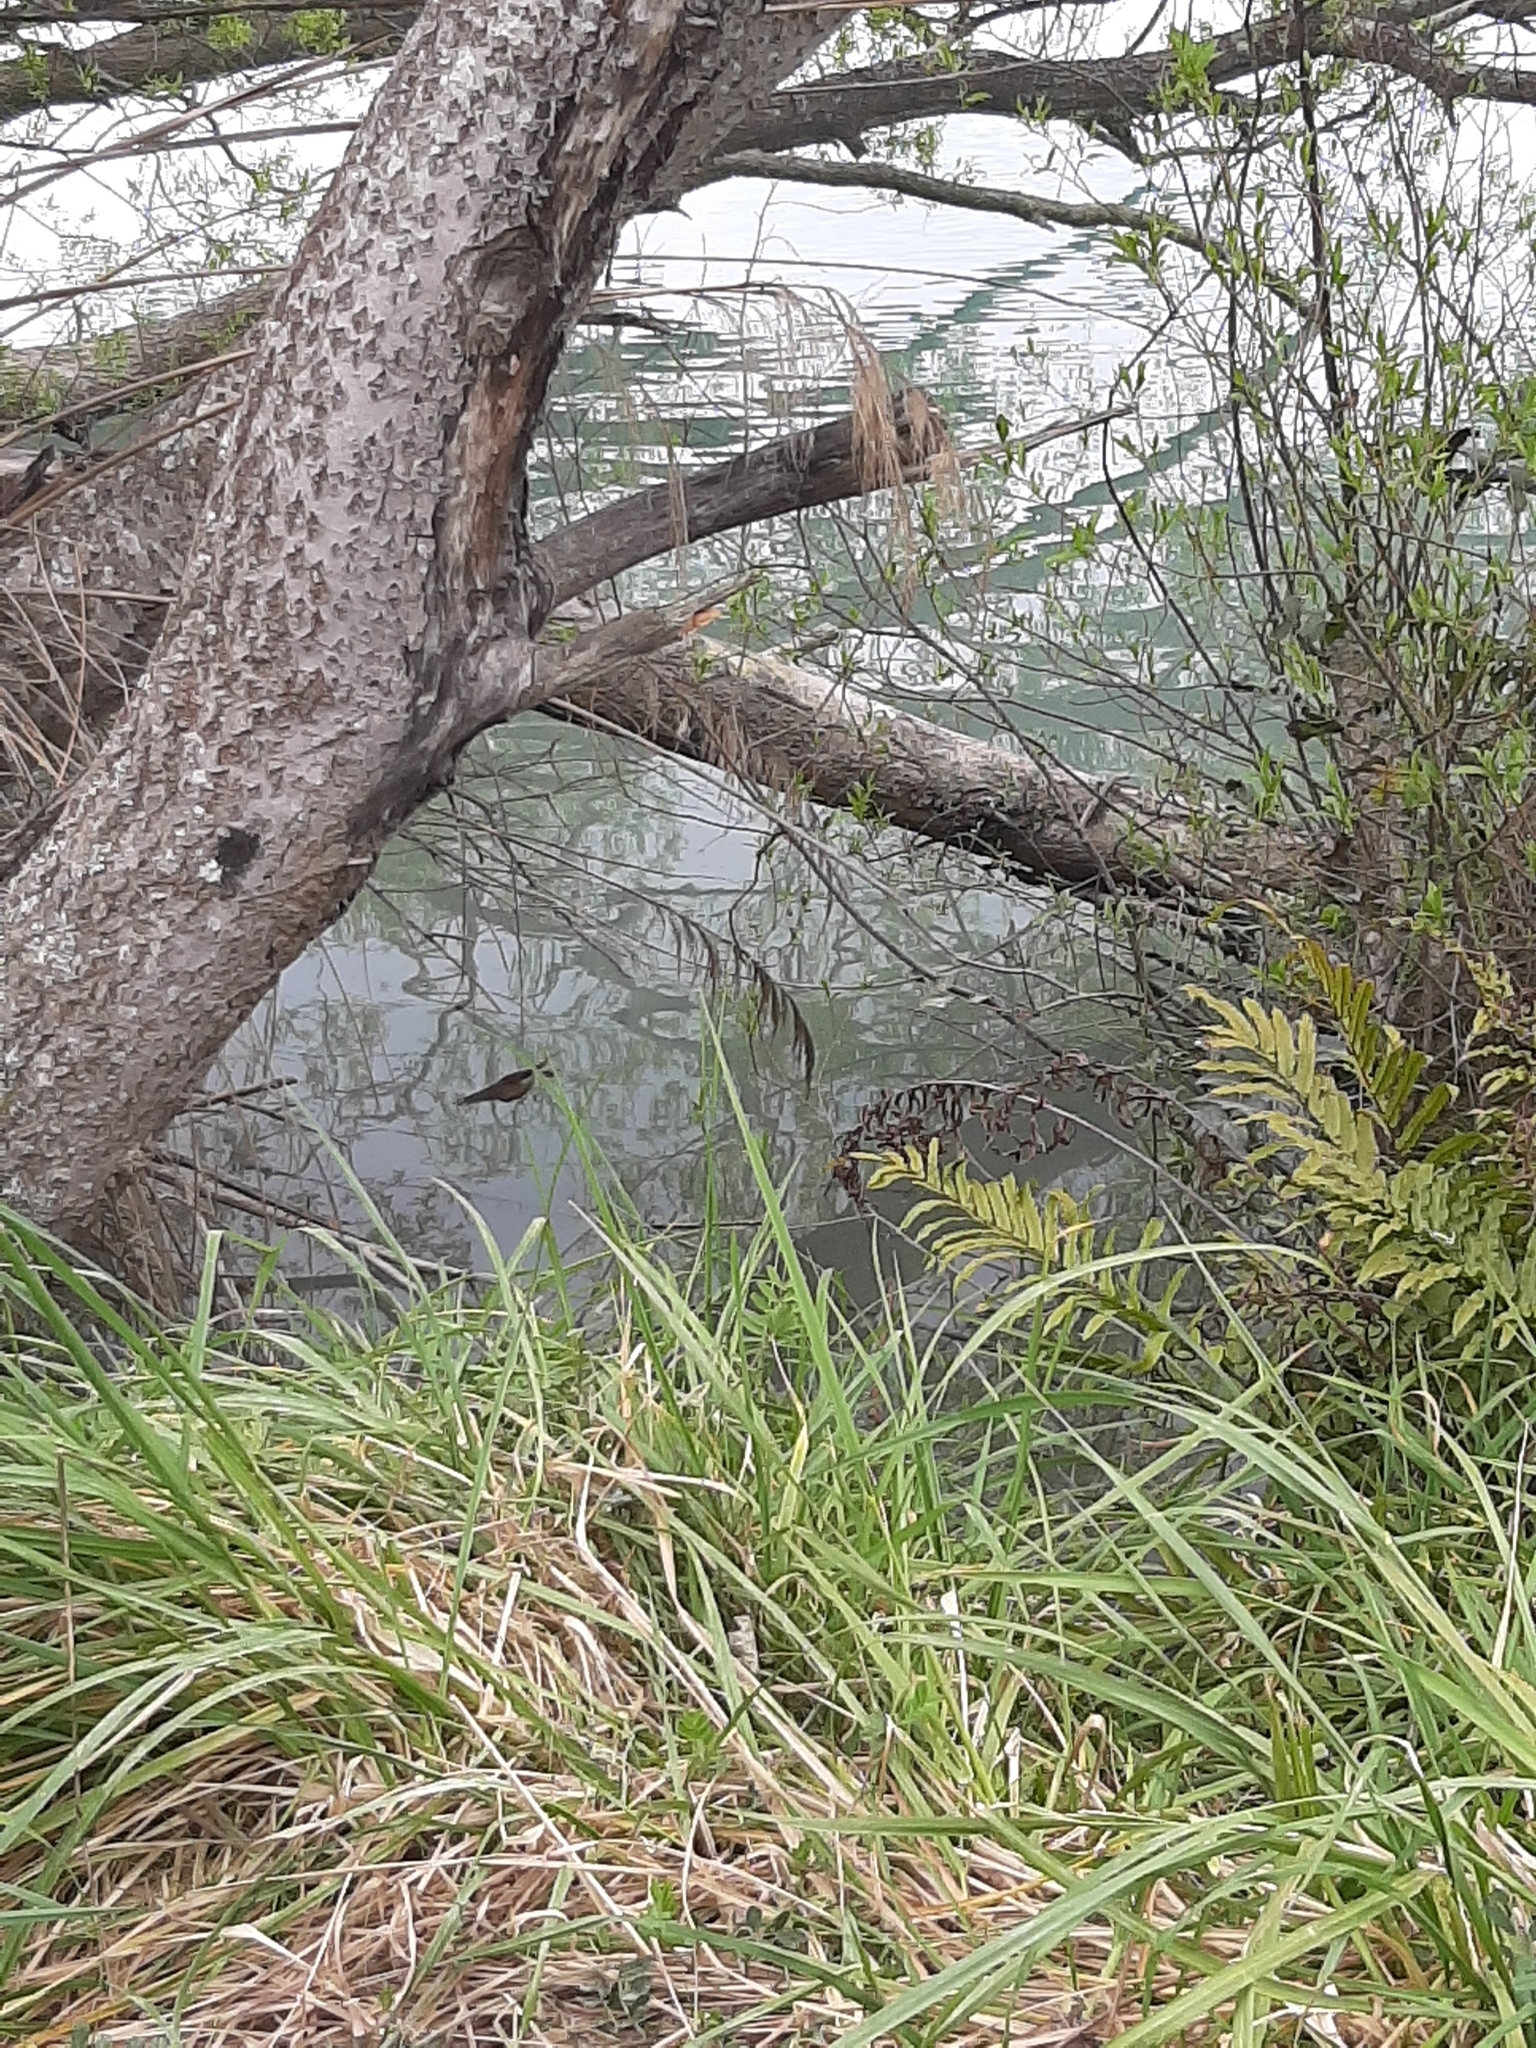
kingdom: Animalia
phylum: Chordata
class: Aves
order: Passeriformes
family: Rhipiduridae
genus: Rhipidura
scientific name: Rhipidura fuliginosa
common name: New zealand fantail
